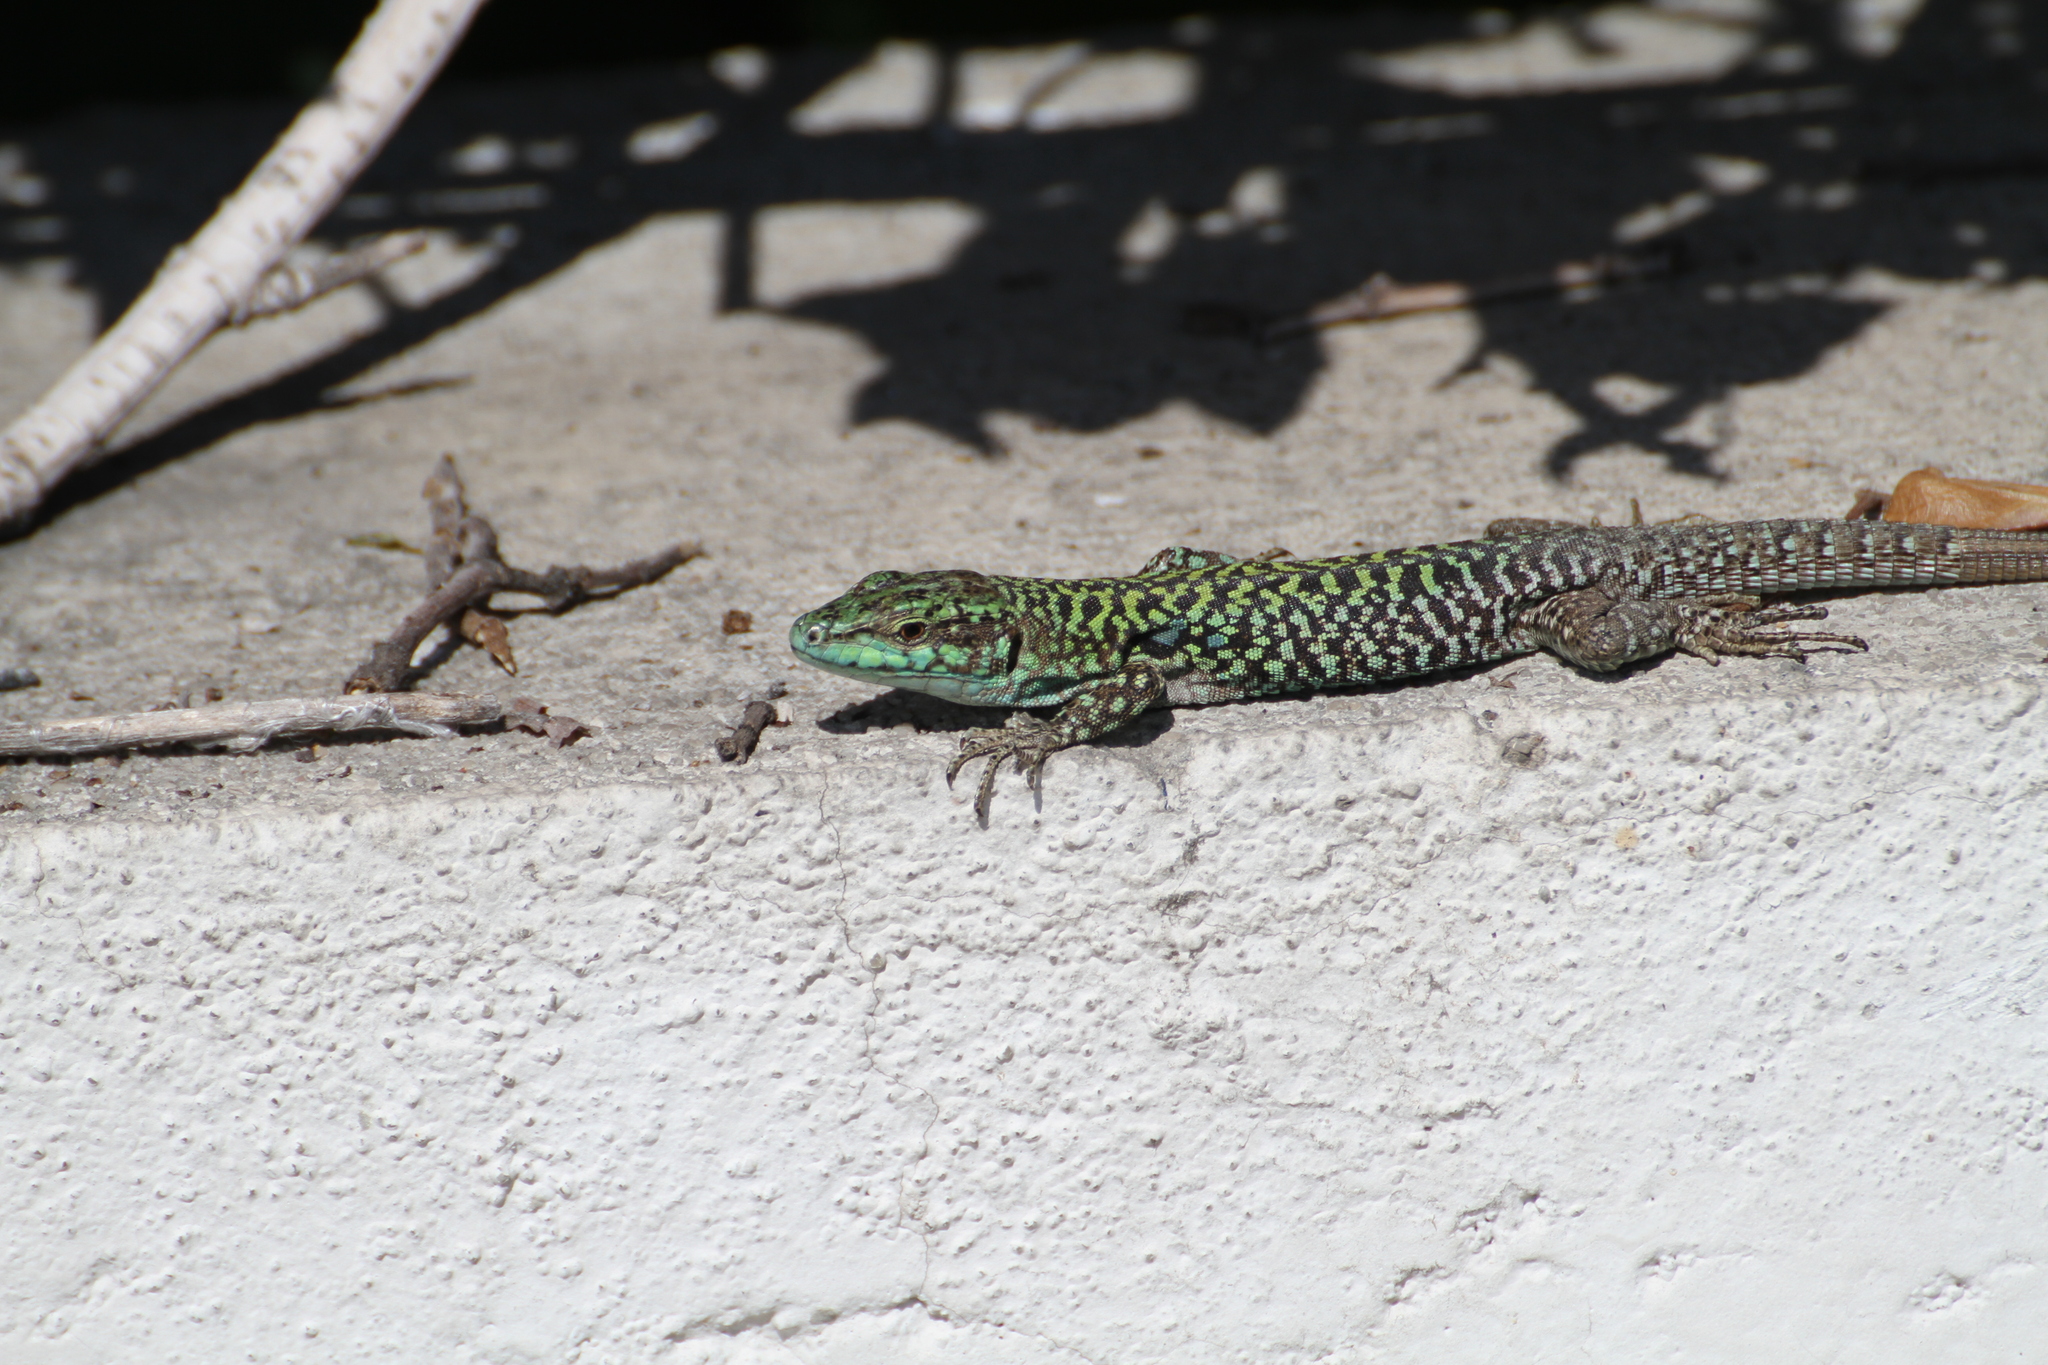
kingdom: Animalia
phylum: Chordata
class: Squamata
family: Lacertidae
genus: Podarcis
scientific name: Podarcis siculus
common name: Italian wall lizard
